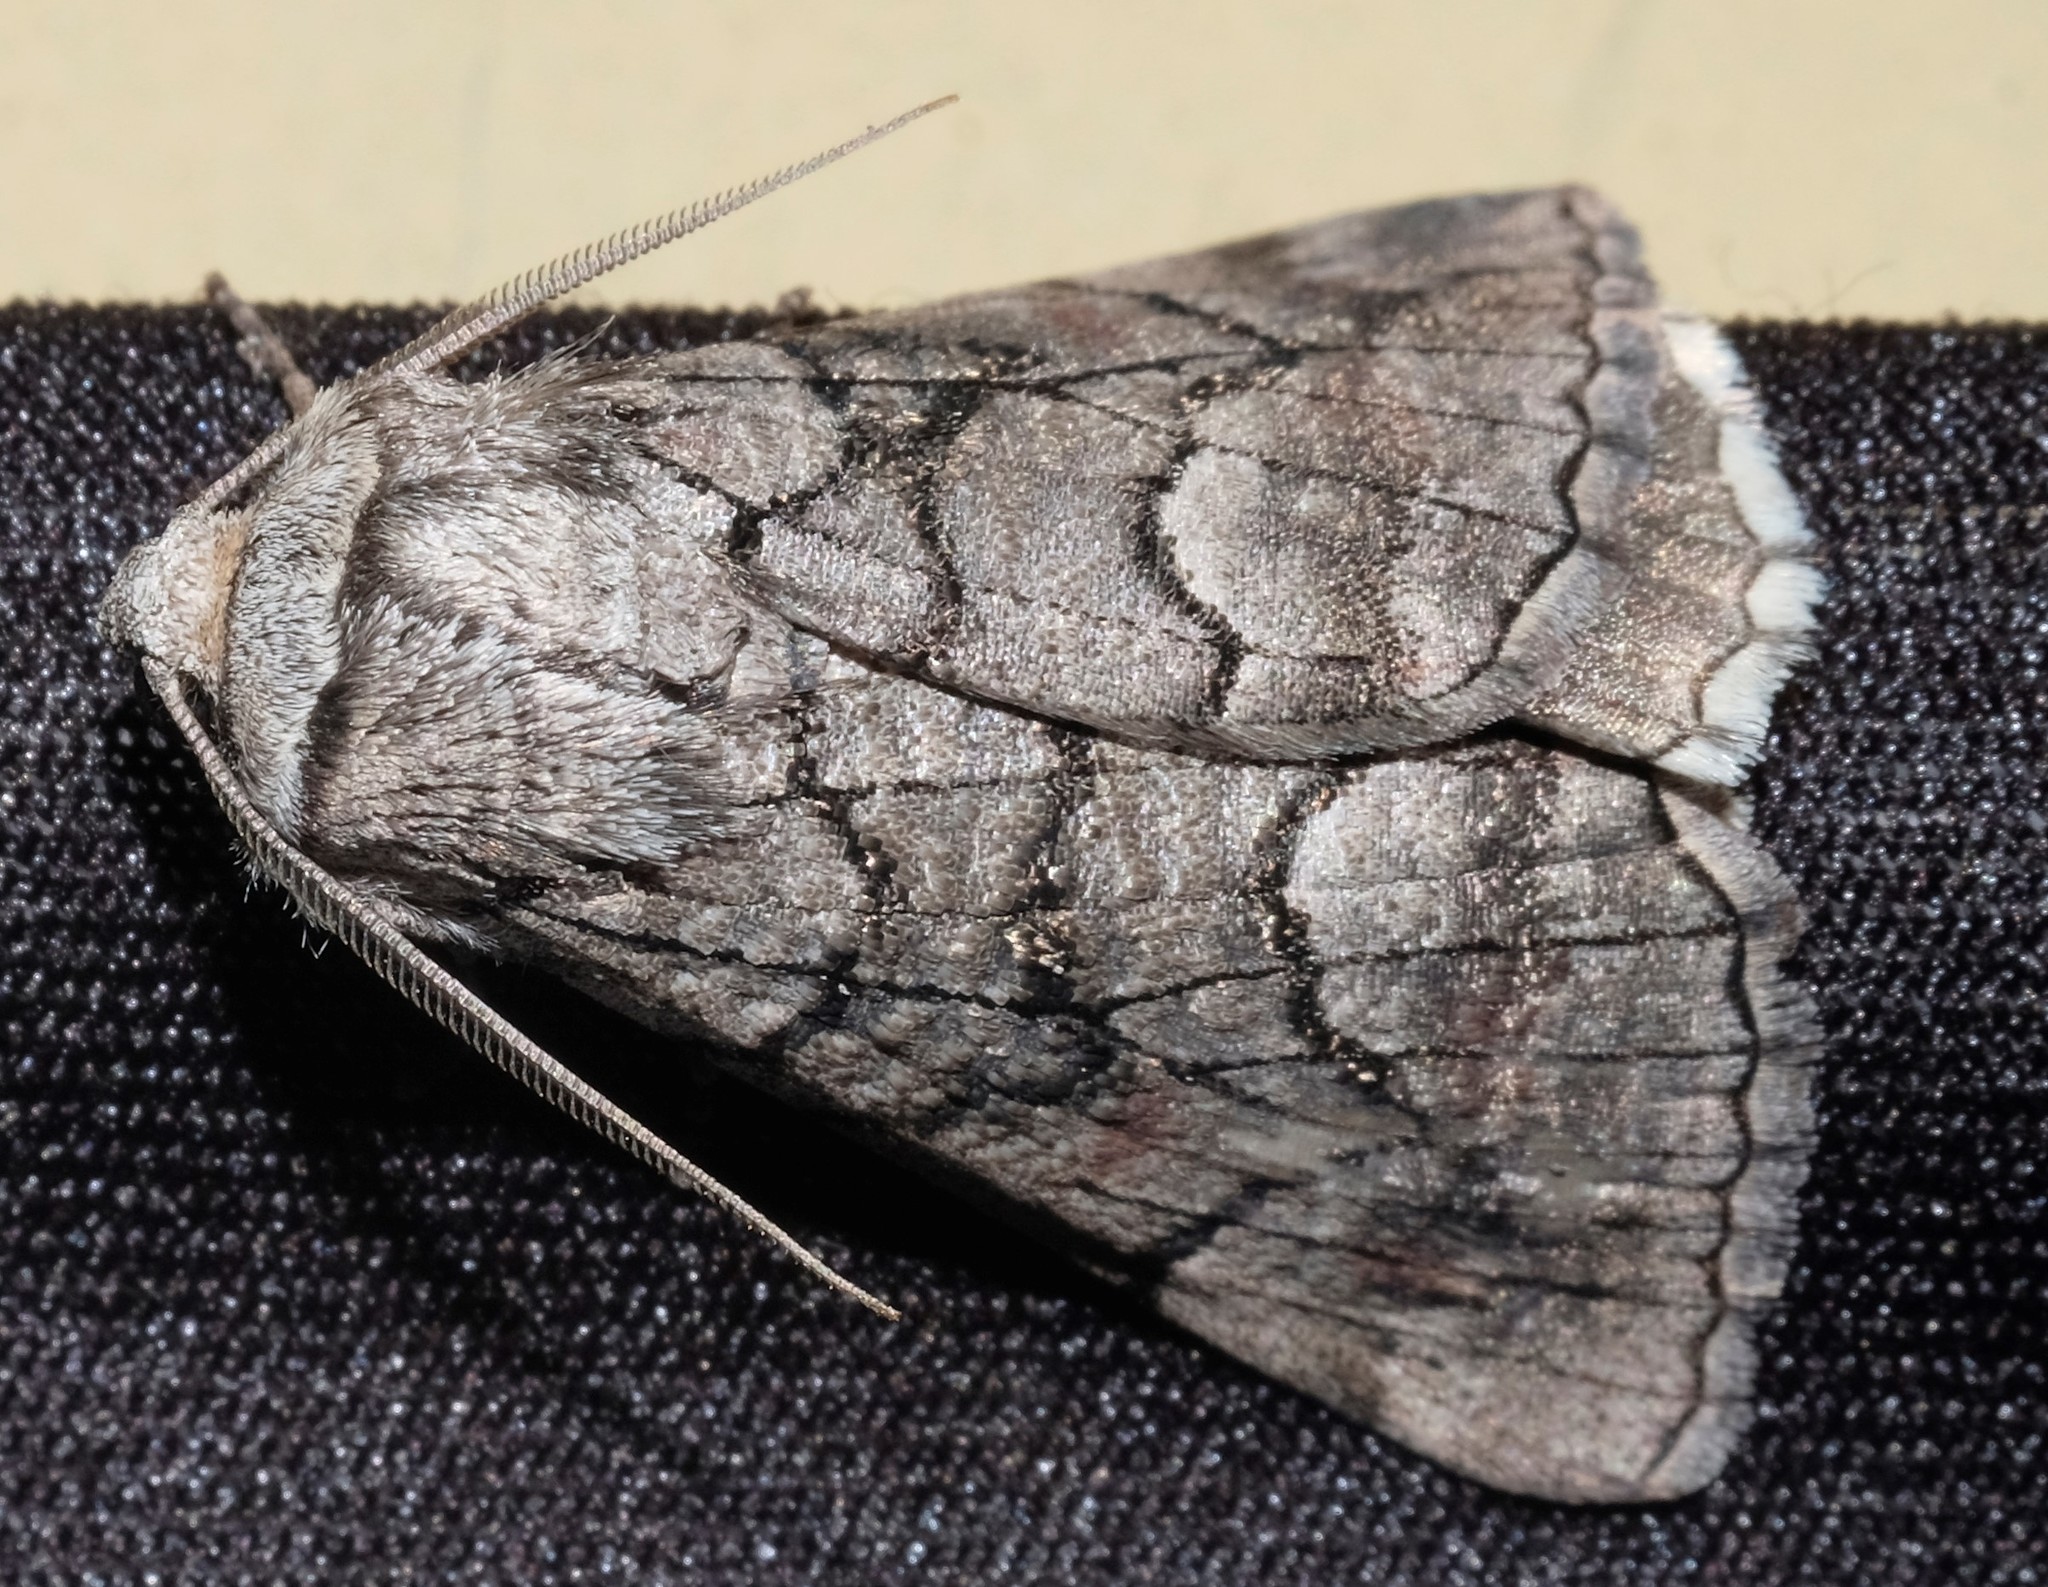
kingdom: Animalia
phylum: Arthropoda
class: Insecta
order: Lepidoptera
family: Geometridae
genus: Stibaroma
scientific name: Stibaroma
